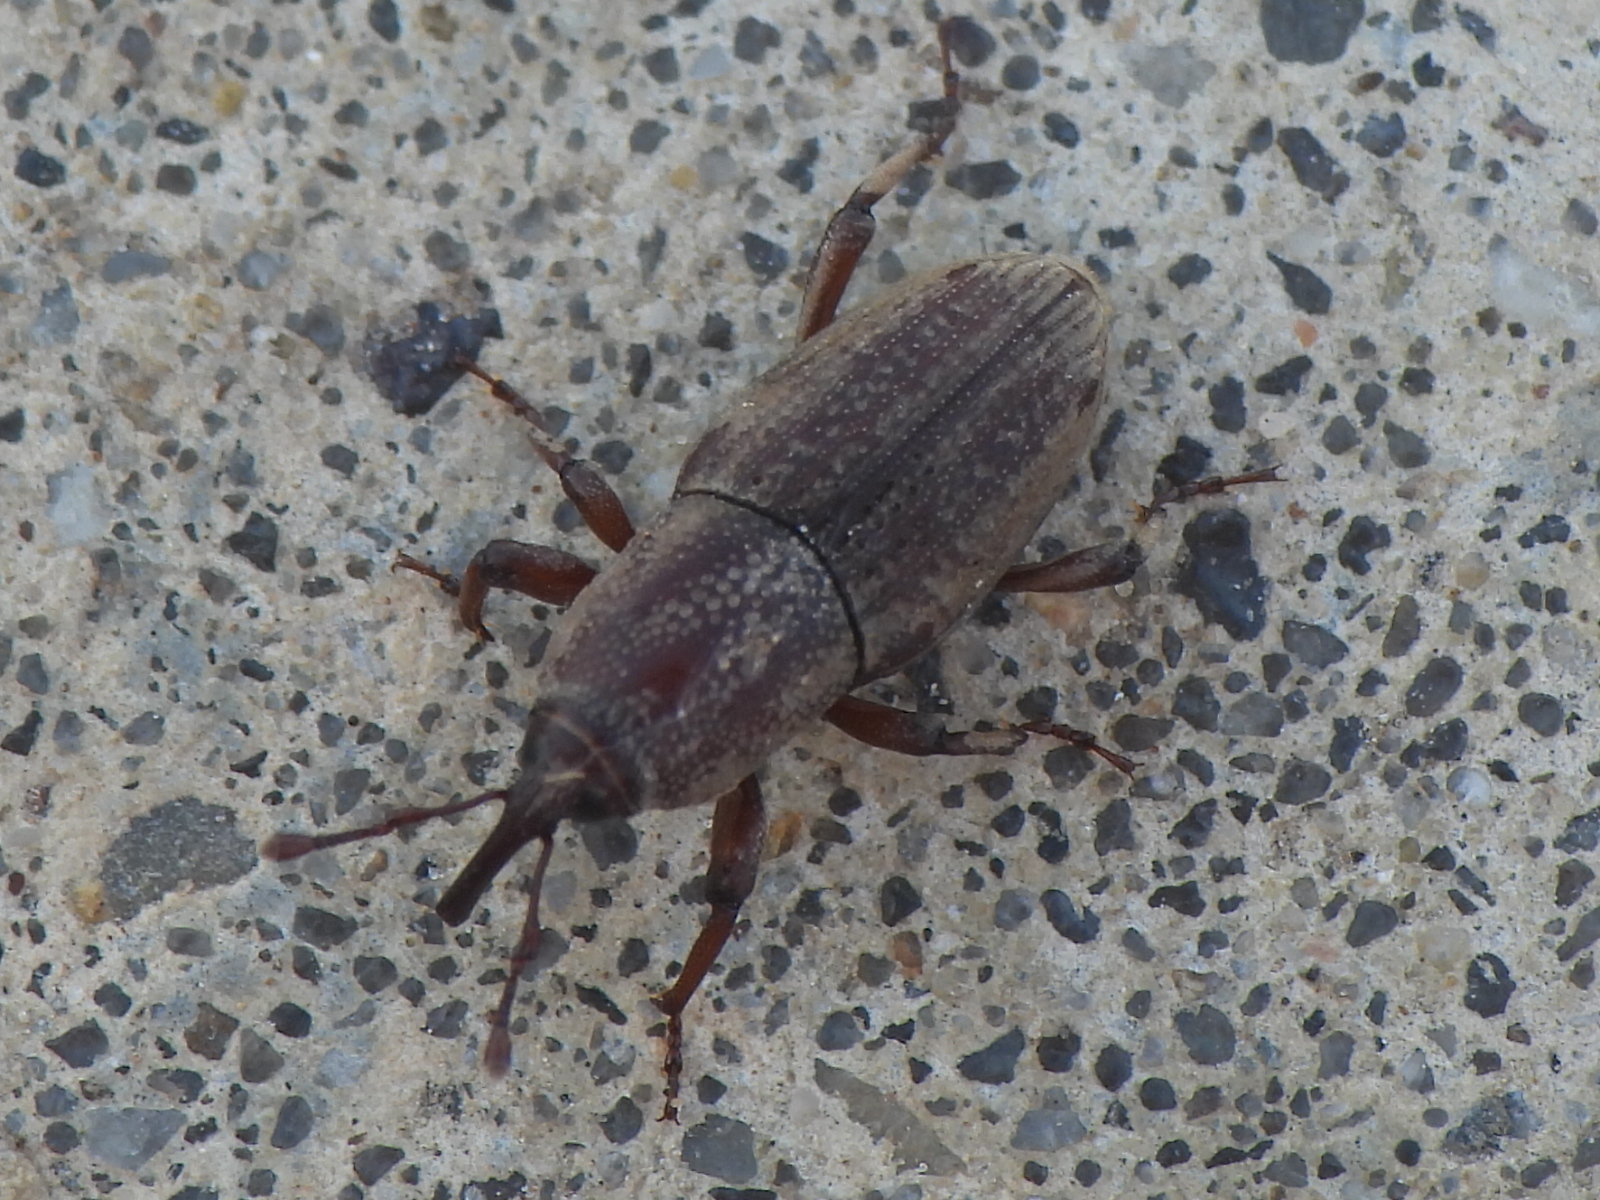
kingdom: Animalia
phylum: Arthropoda
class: Insecta
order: Coleoptera
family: Dryophthoridae
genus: Sphenophorus
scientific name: Sphenophorus venatus
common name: Hunting billbug
